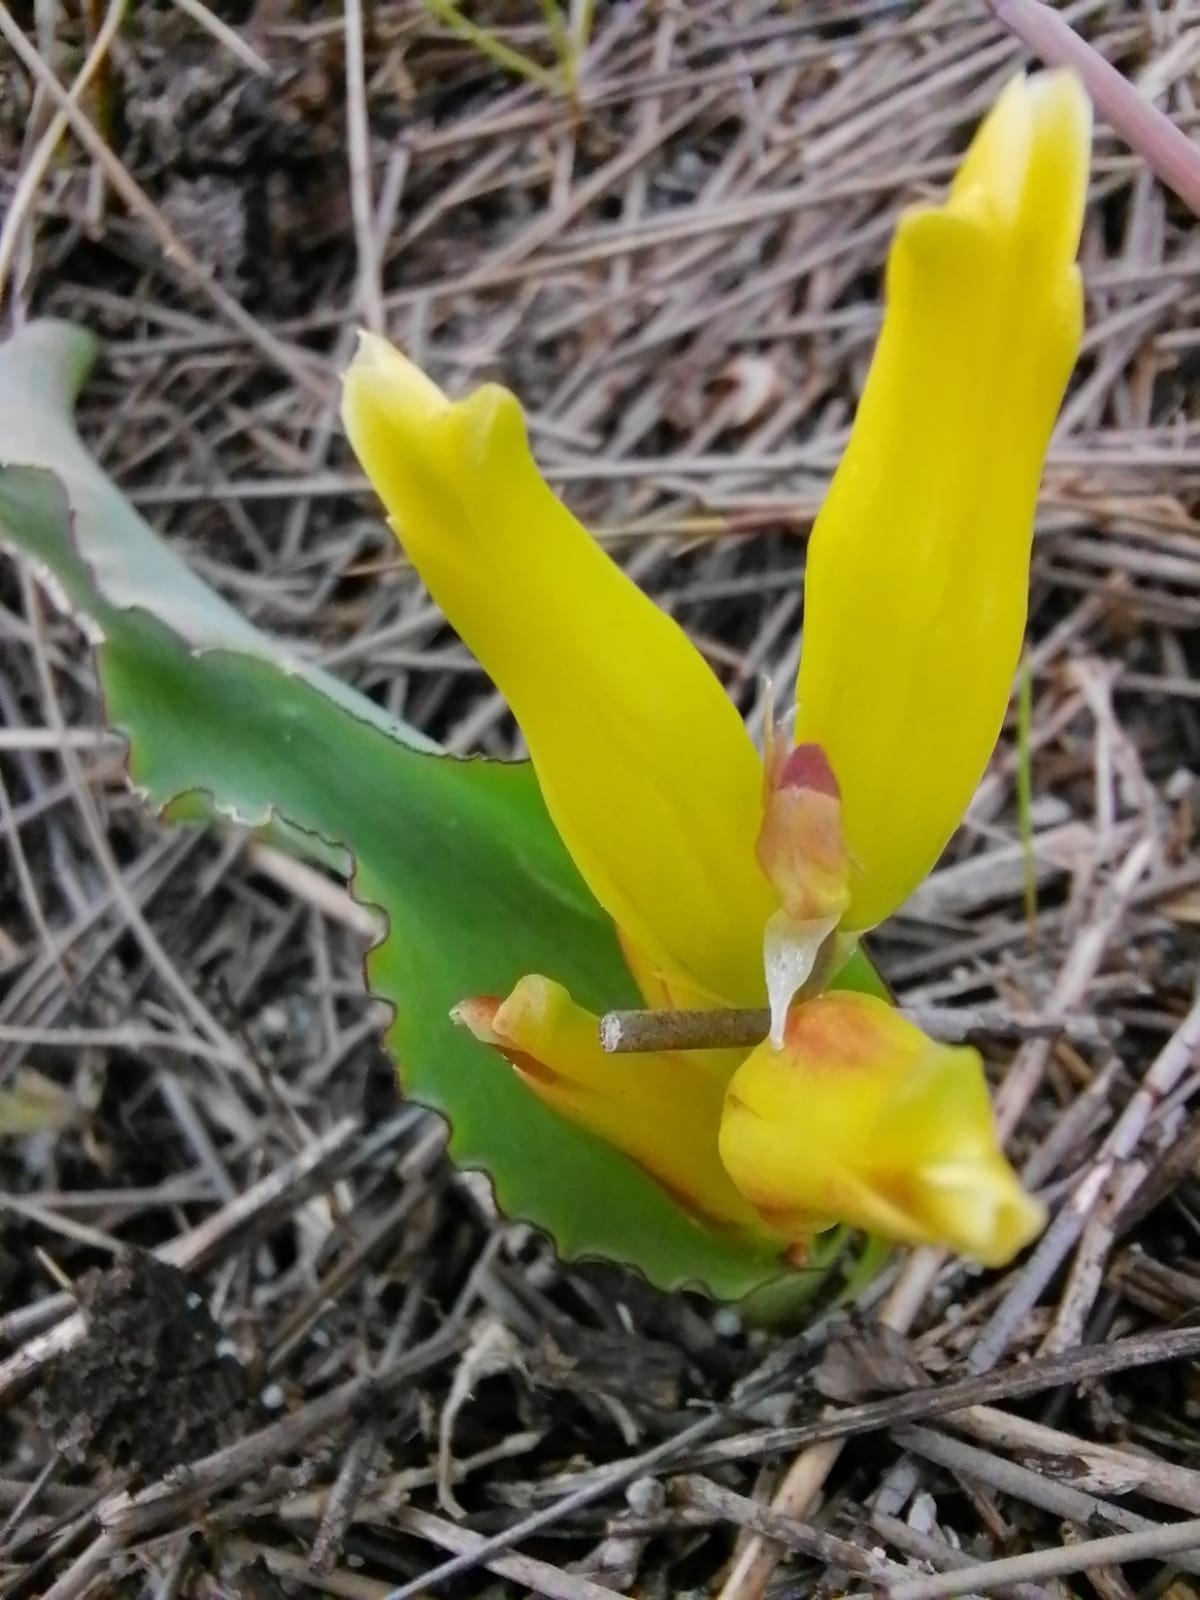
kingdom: Plantae
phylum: Tracheophyta
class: Liliopsida
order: Asparagales
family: Asparagaceae
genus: Lachenalia
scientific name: Lachenalia reflexa
